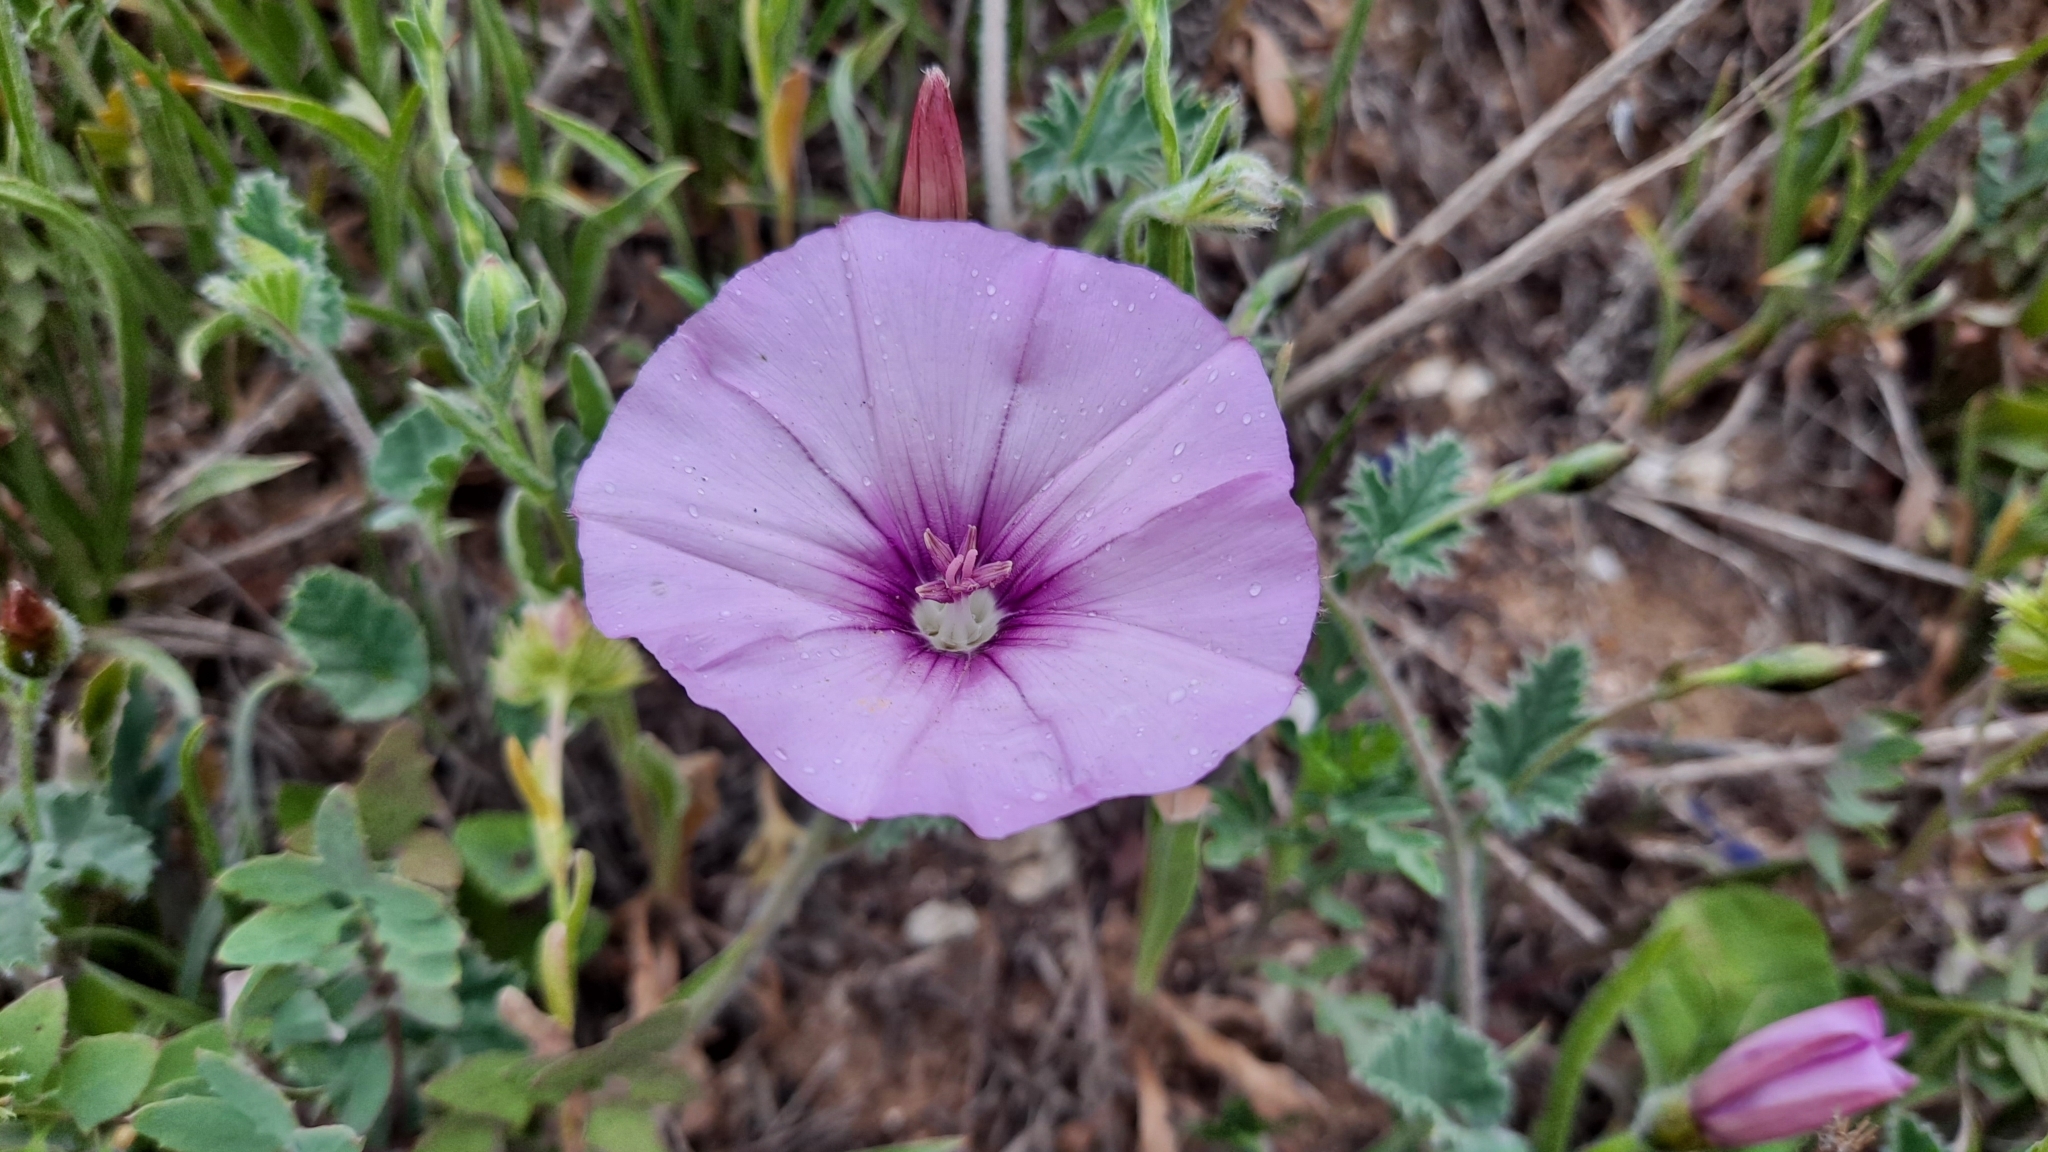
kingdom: Plantae
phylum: Tracheophyta
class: Magnoliopsida
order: Solanales
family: Convolvulaceae
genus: Convolvulus
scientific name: Convolvulus althaeoides
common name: Mallow bindweed
